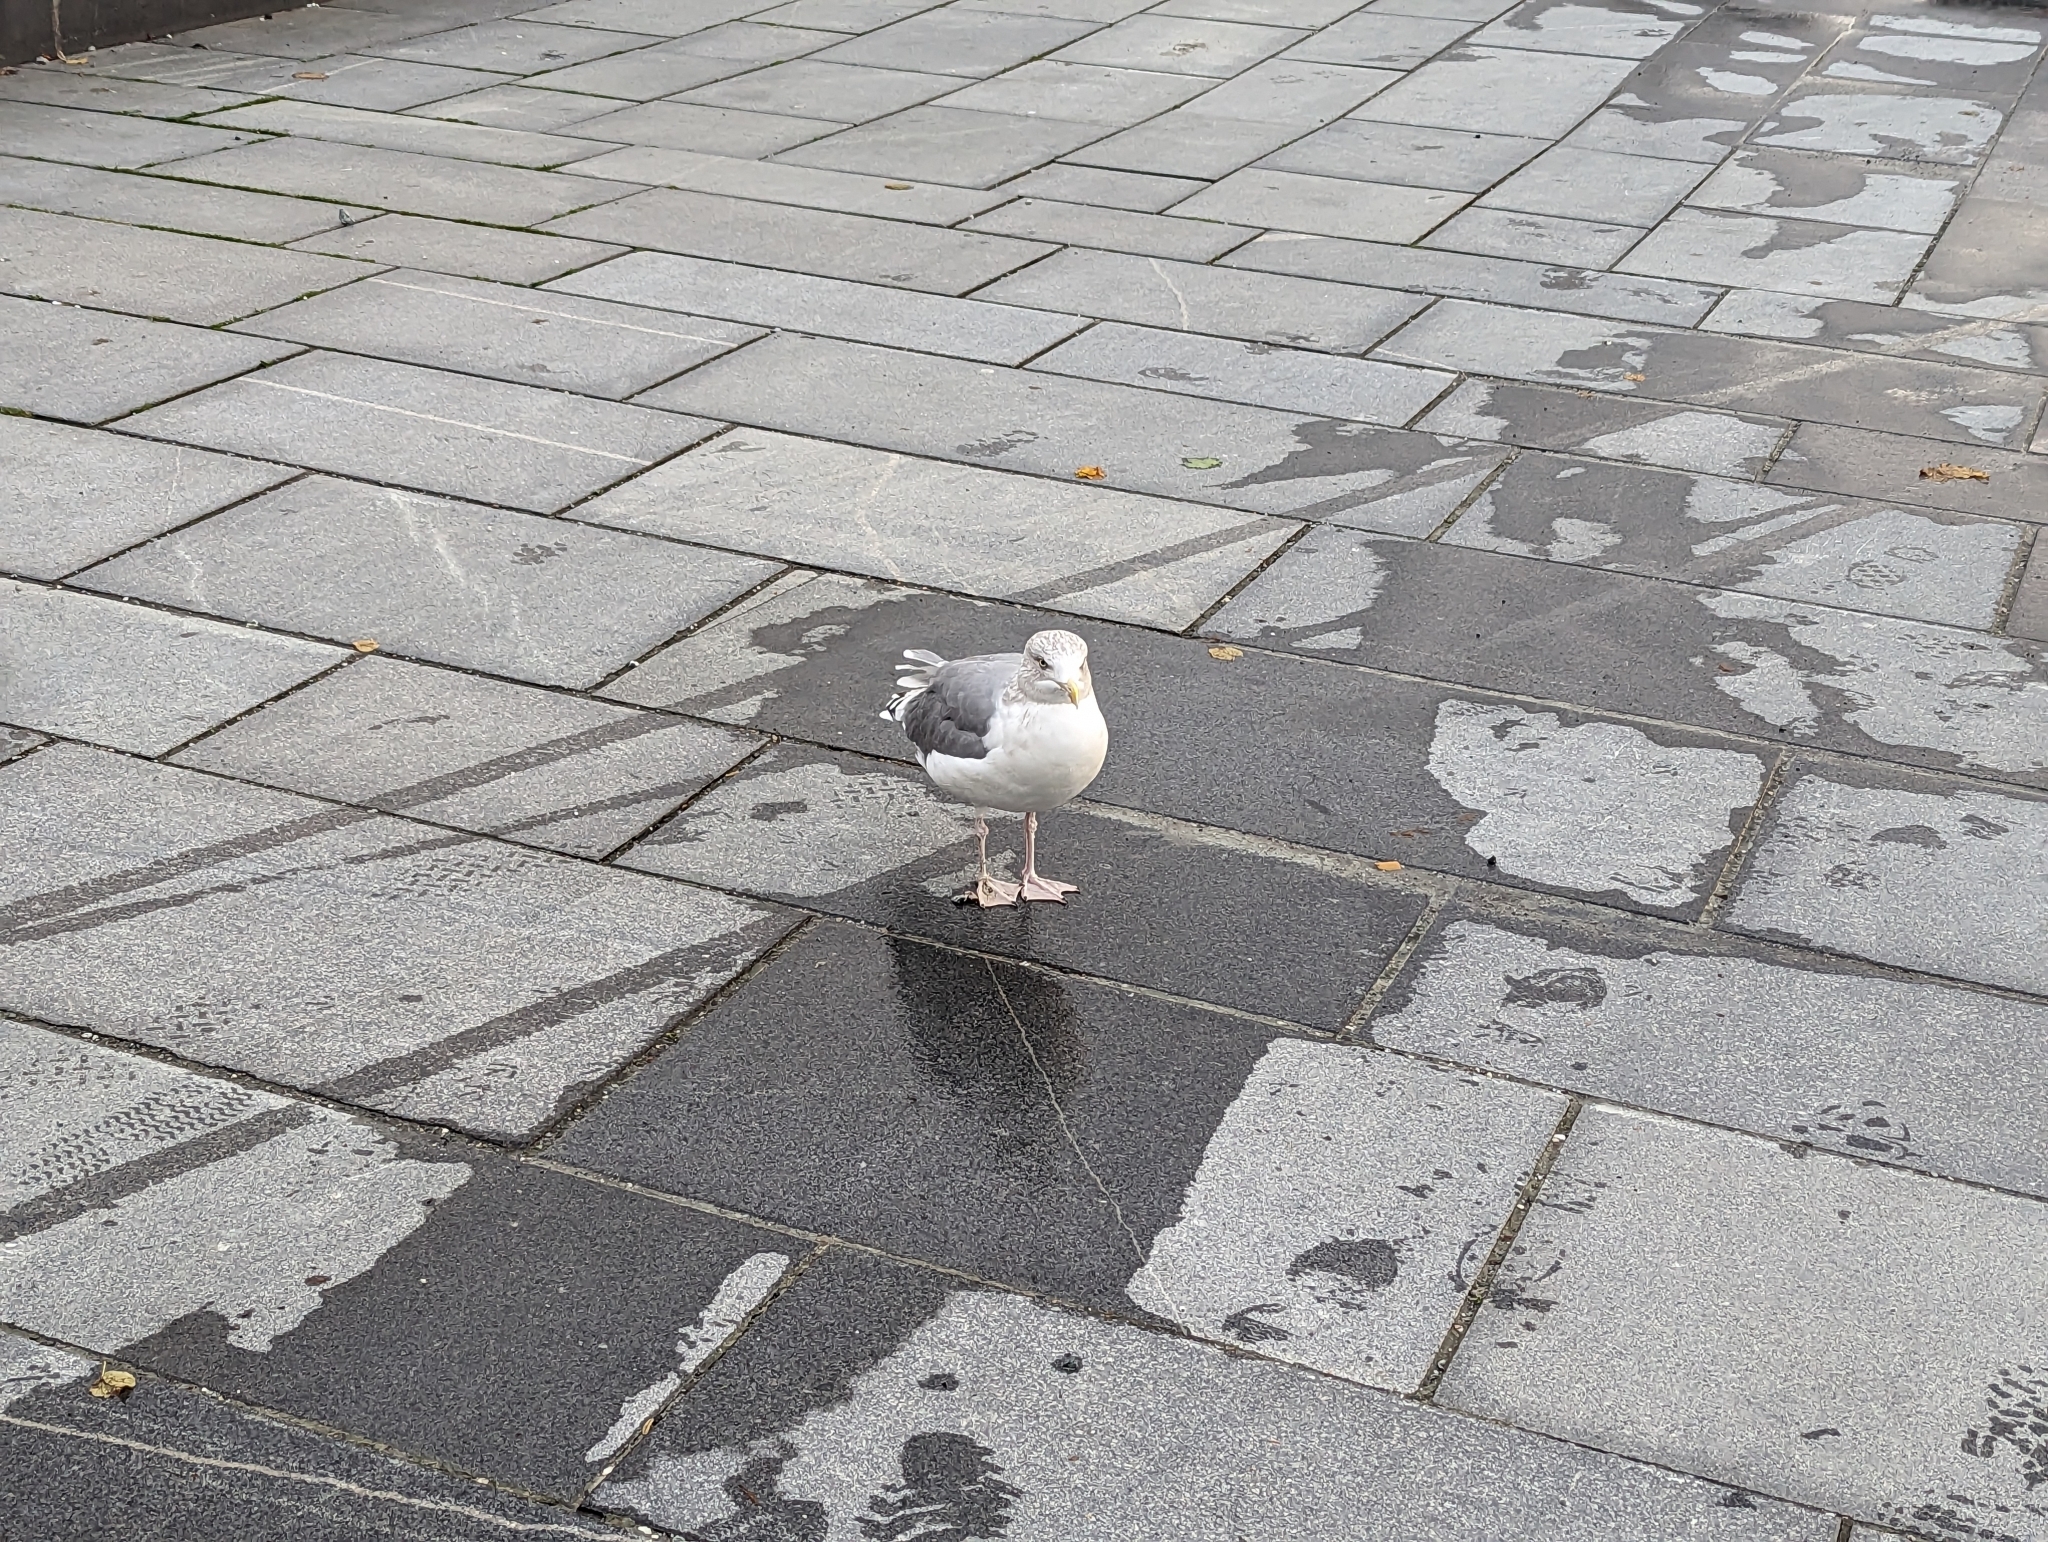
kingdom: Animalia
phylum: Chordata
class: Aves
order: Charadriiformes
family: Laridae
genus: Larus
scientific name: Larus argentatus
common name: Herring gull
